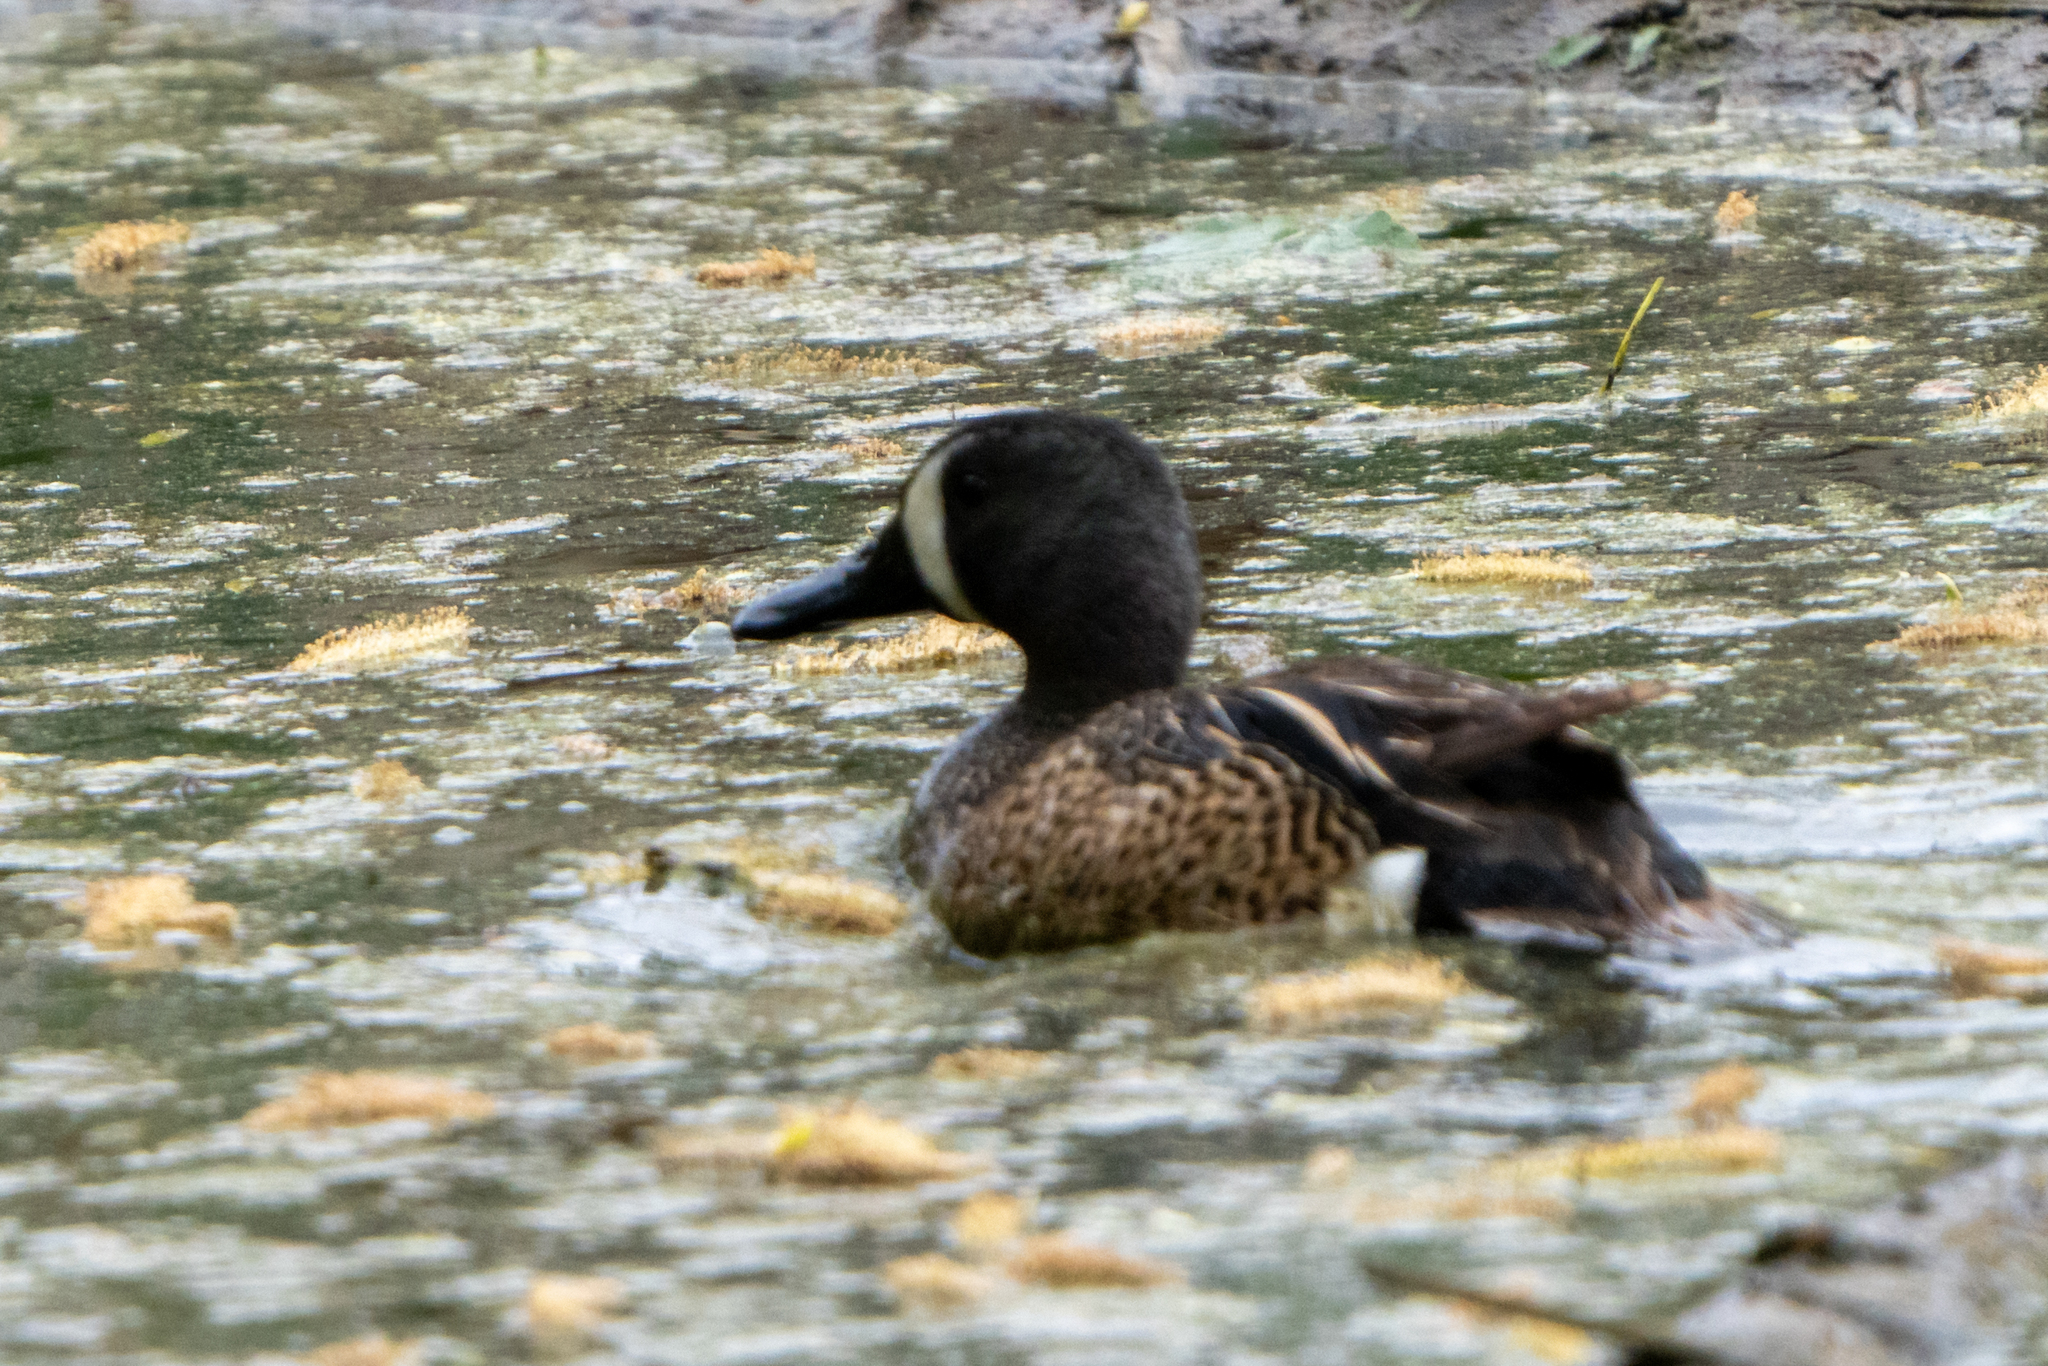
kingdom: Animalia
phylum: Chordata
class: Aves
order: Anseriformes
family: Anatidae
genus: Spatula
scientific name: Spatula discors
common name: Blue-winged teal
